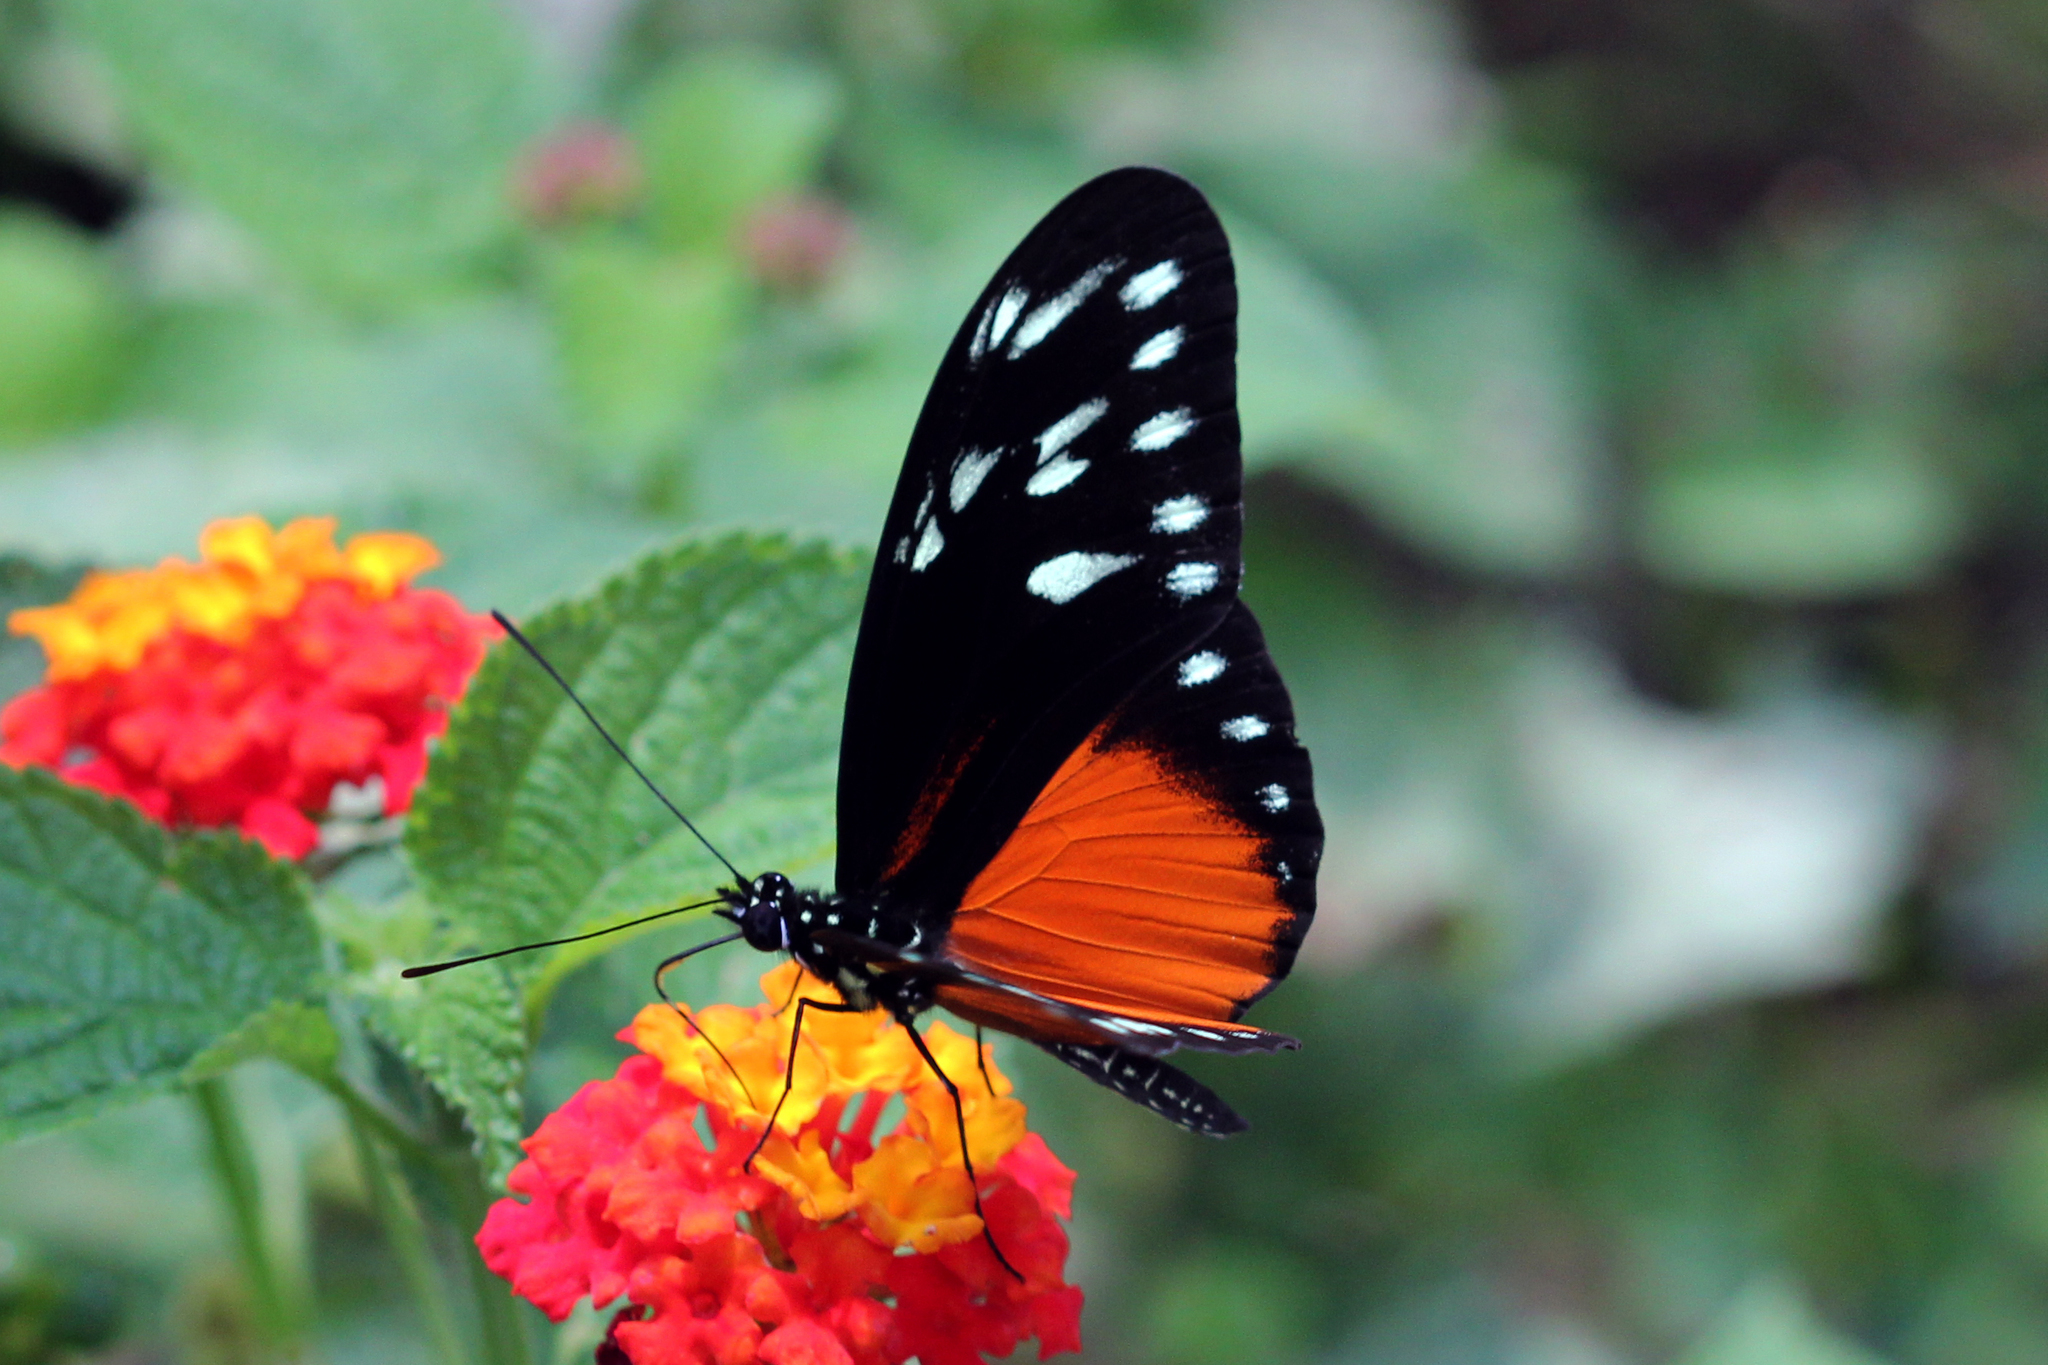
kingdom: Animalia
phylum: Arthropoda
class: Insecta
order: Lepidoptera
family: Nymphalidae
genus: Heliconius
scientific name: Heliconius hecalesia
